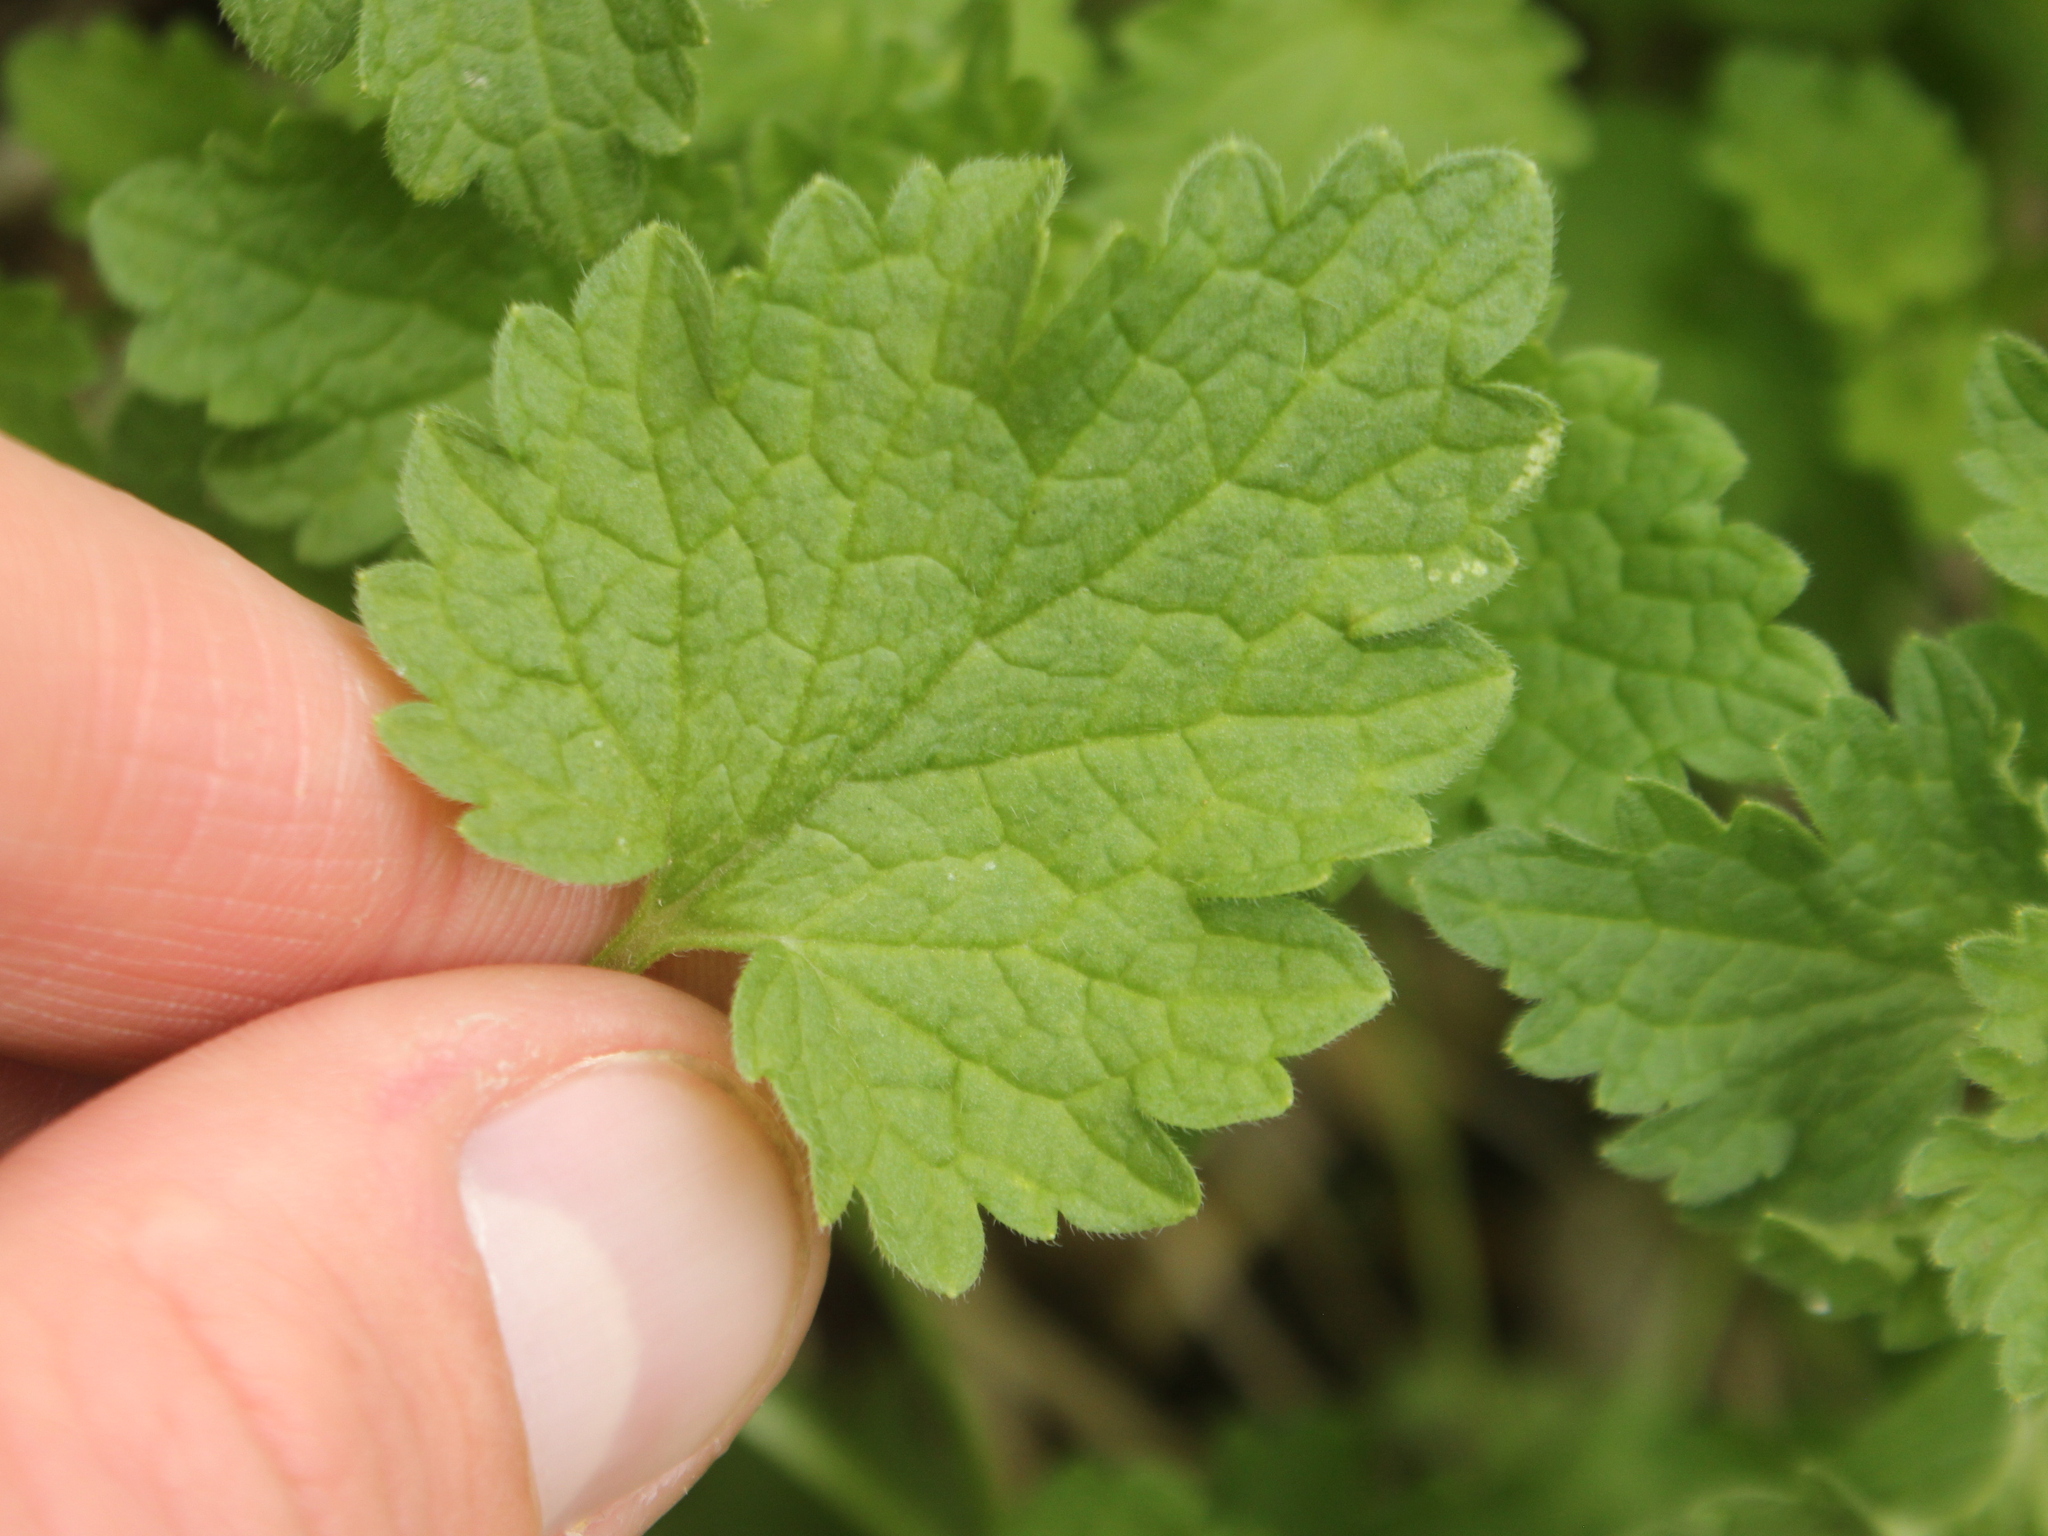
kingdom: Plantae
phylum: Tracheophyta
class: Magnoliopsida
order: Lamiales
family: Lamiaceae
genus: Lamium
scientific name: Lamium hybridum
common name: Cut-leaved dead-nettle
